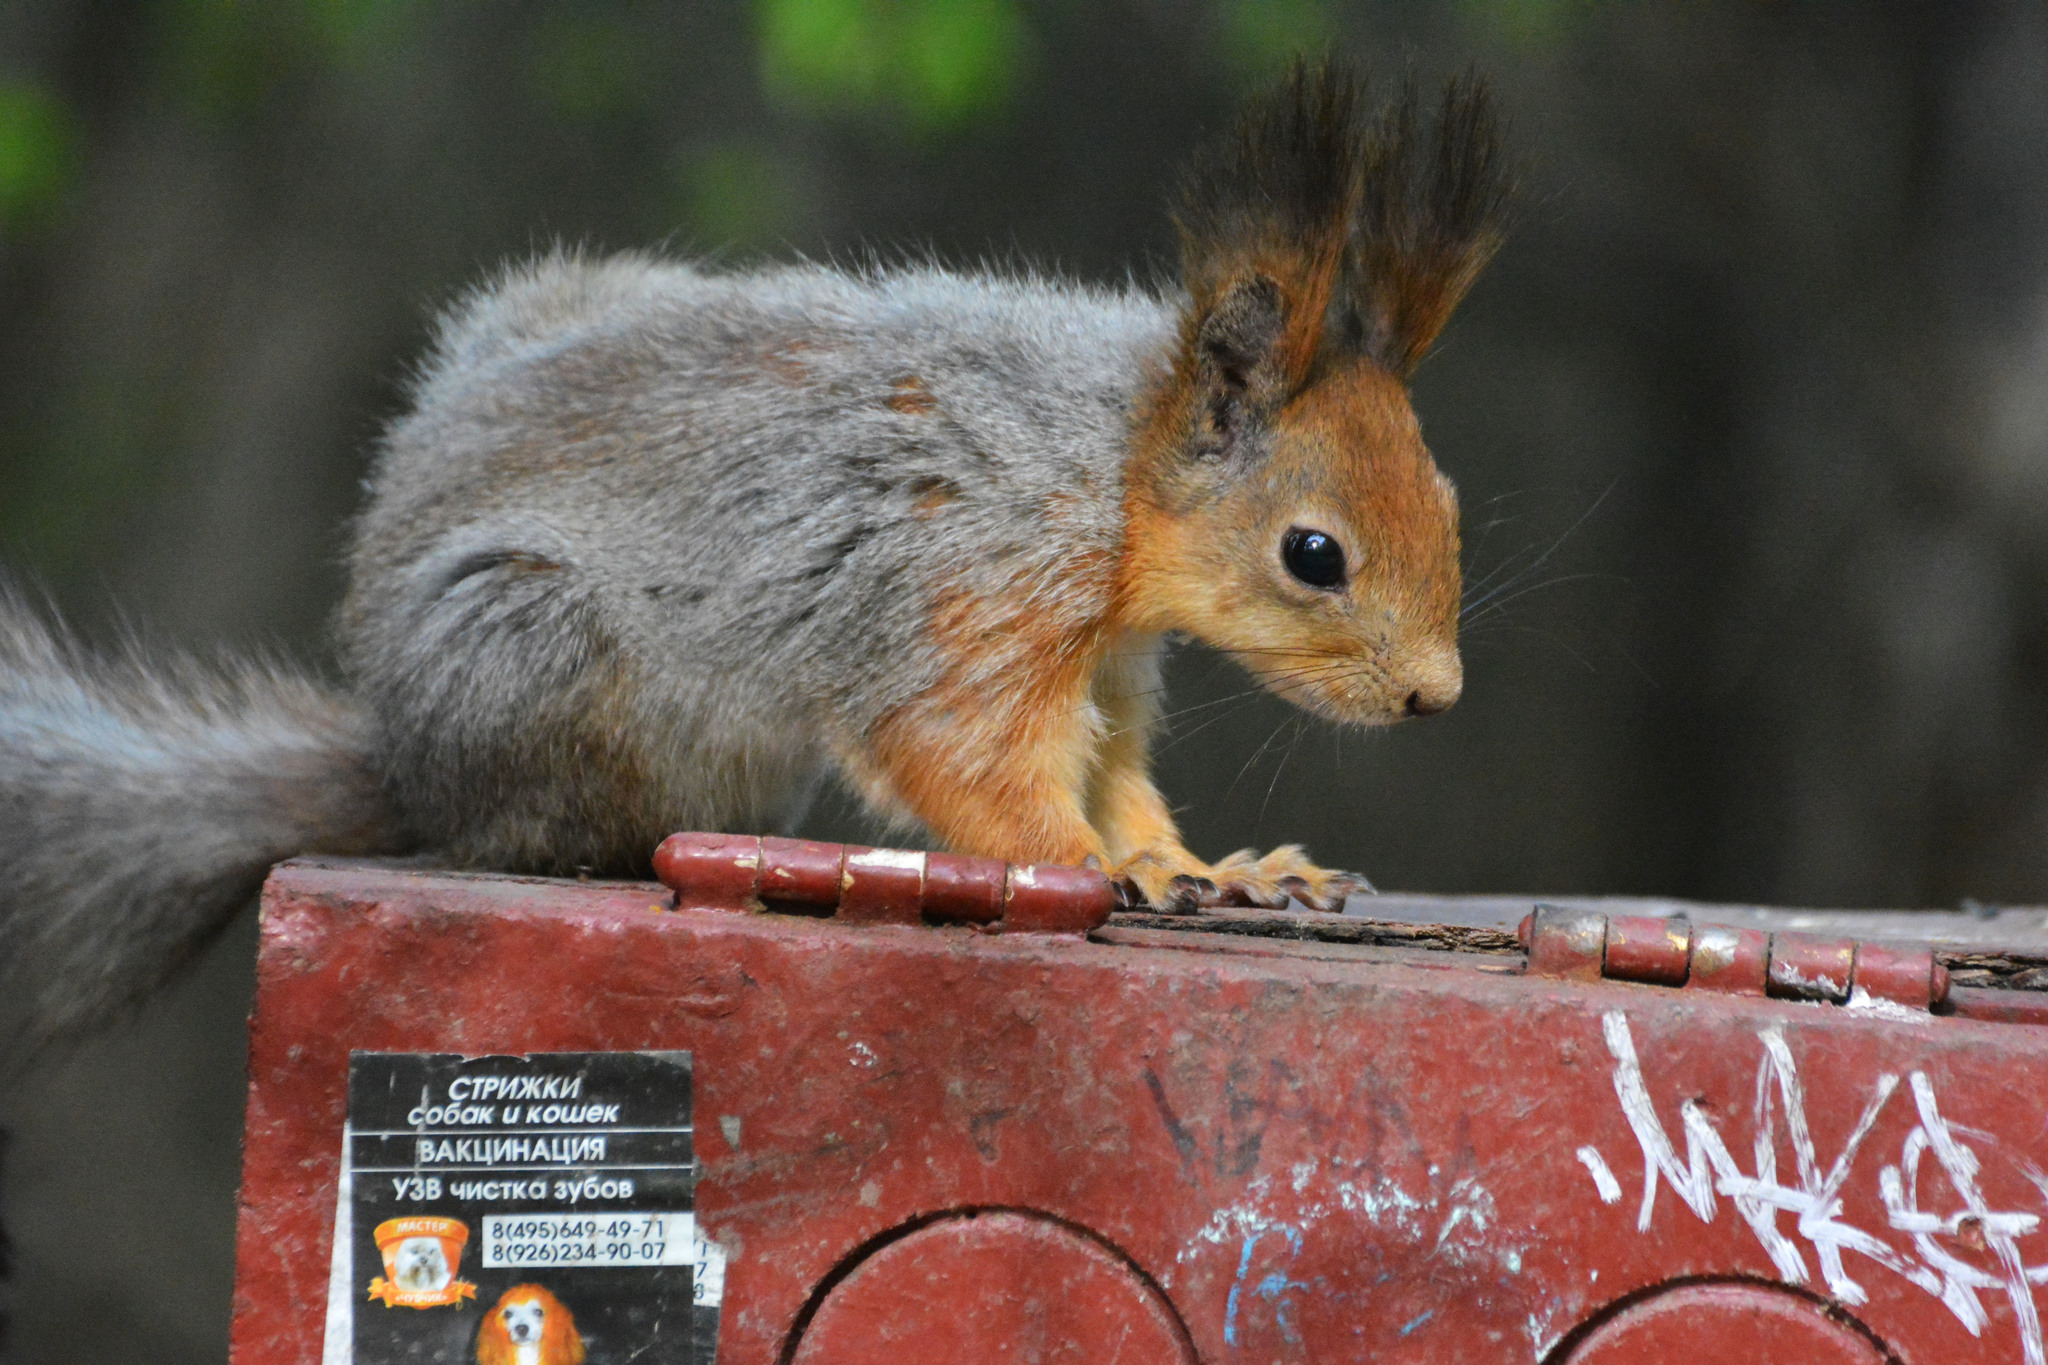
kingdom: Animalia
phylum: Chordata
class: Mammalia
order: Rodentia
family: Sciuridae
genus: Sciurus
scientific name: Sciurus vulgaris
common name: Eurasian red squirrel
